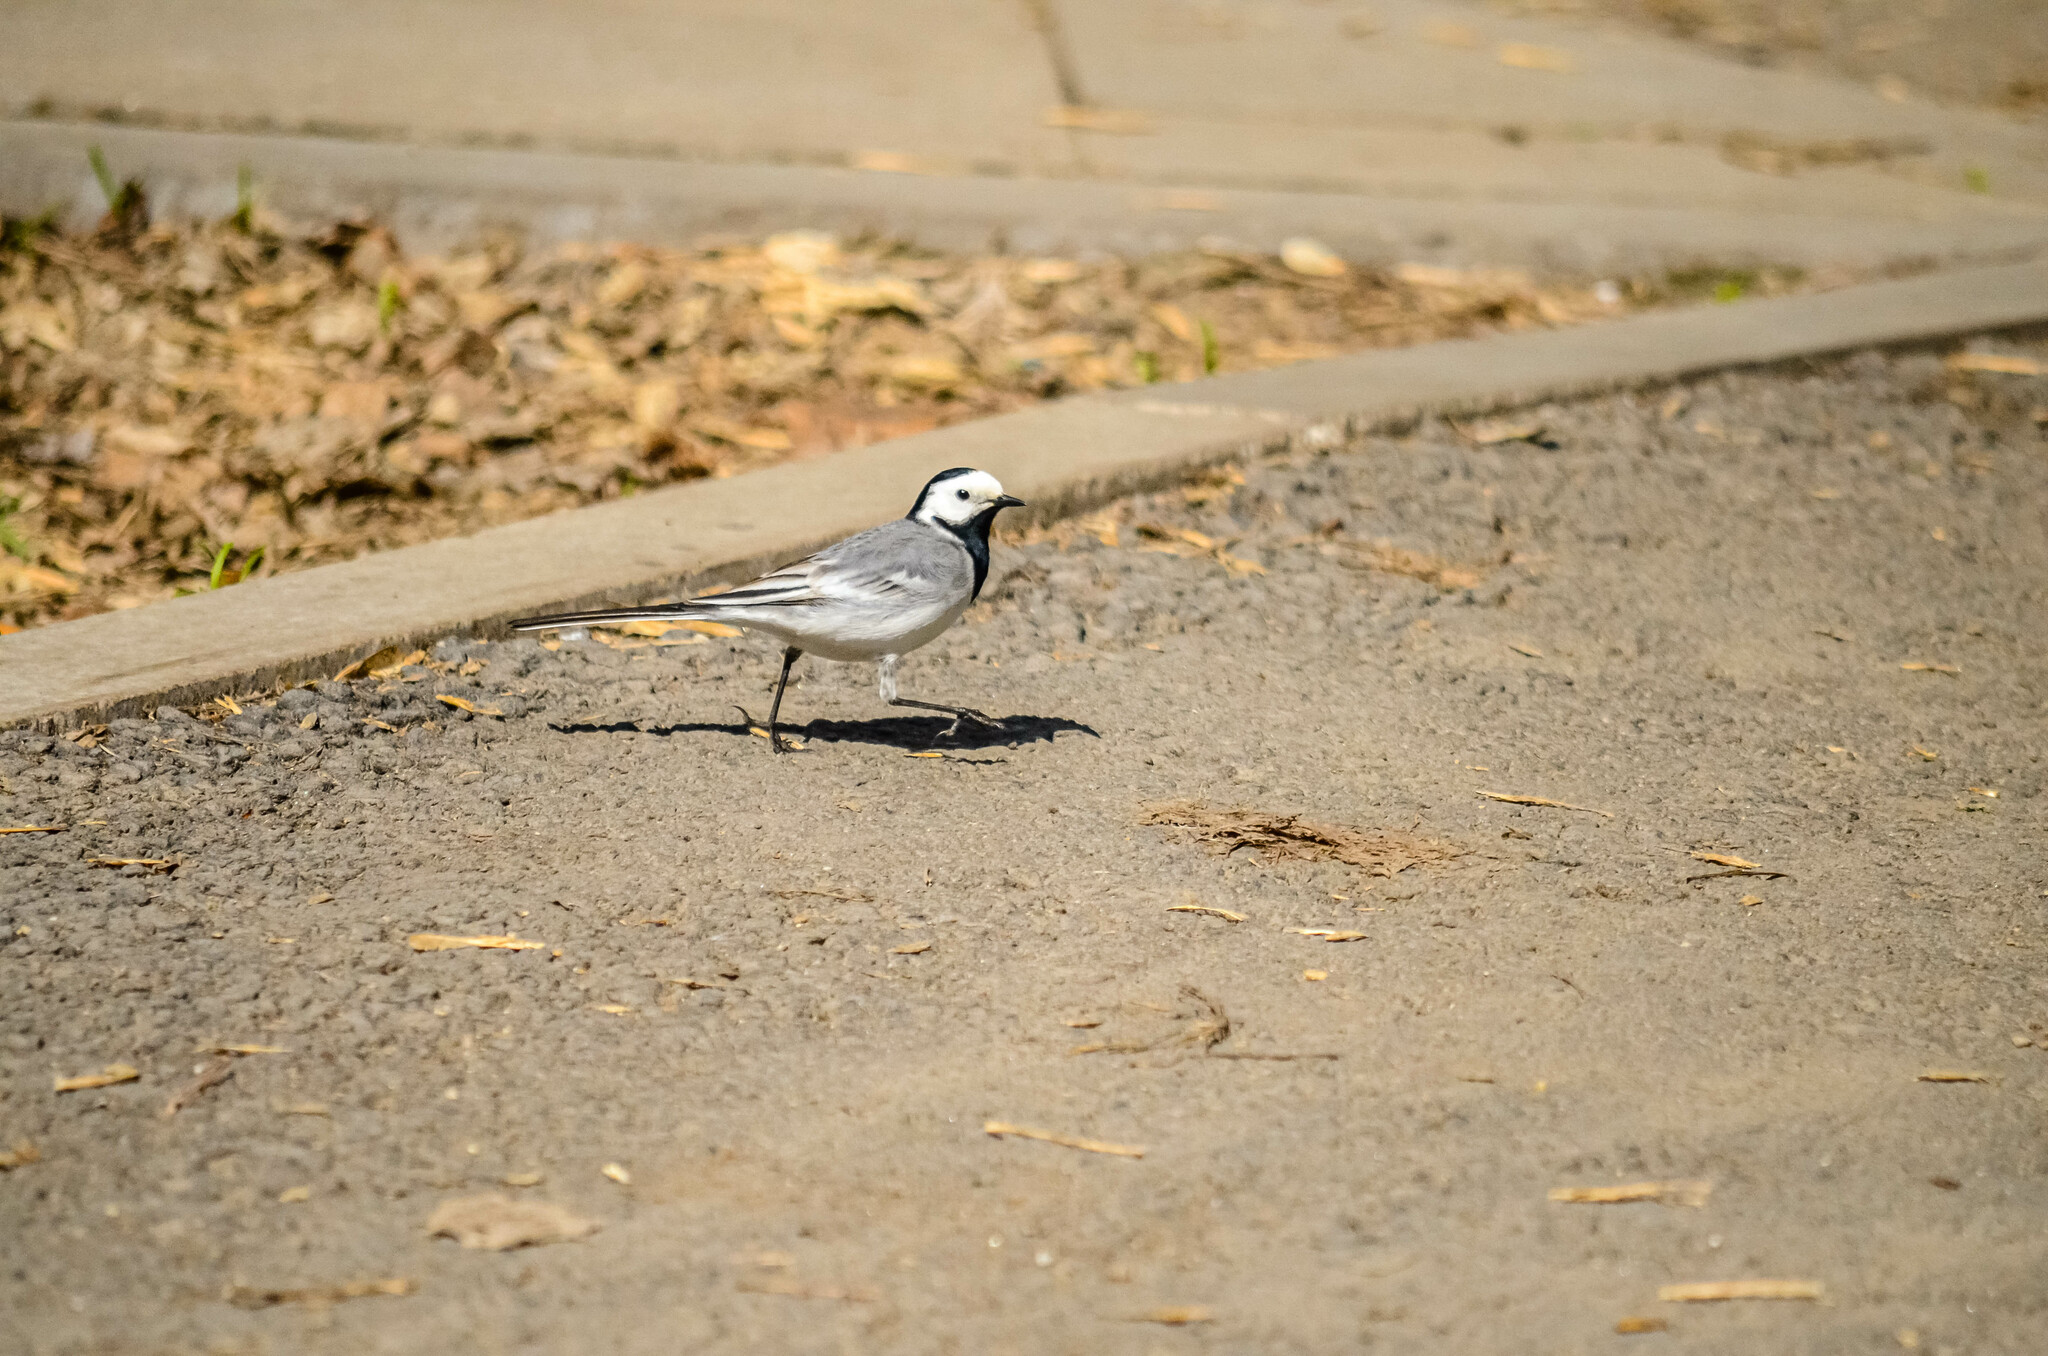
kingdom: Animalia
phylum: Chordata
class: Aves
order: Passeriformes
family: Motacillidae
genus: Motacilla
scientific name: Motacilla alba
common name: White wagtail
